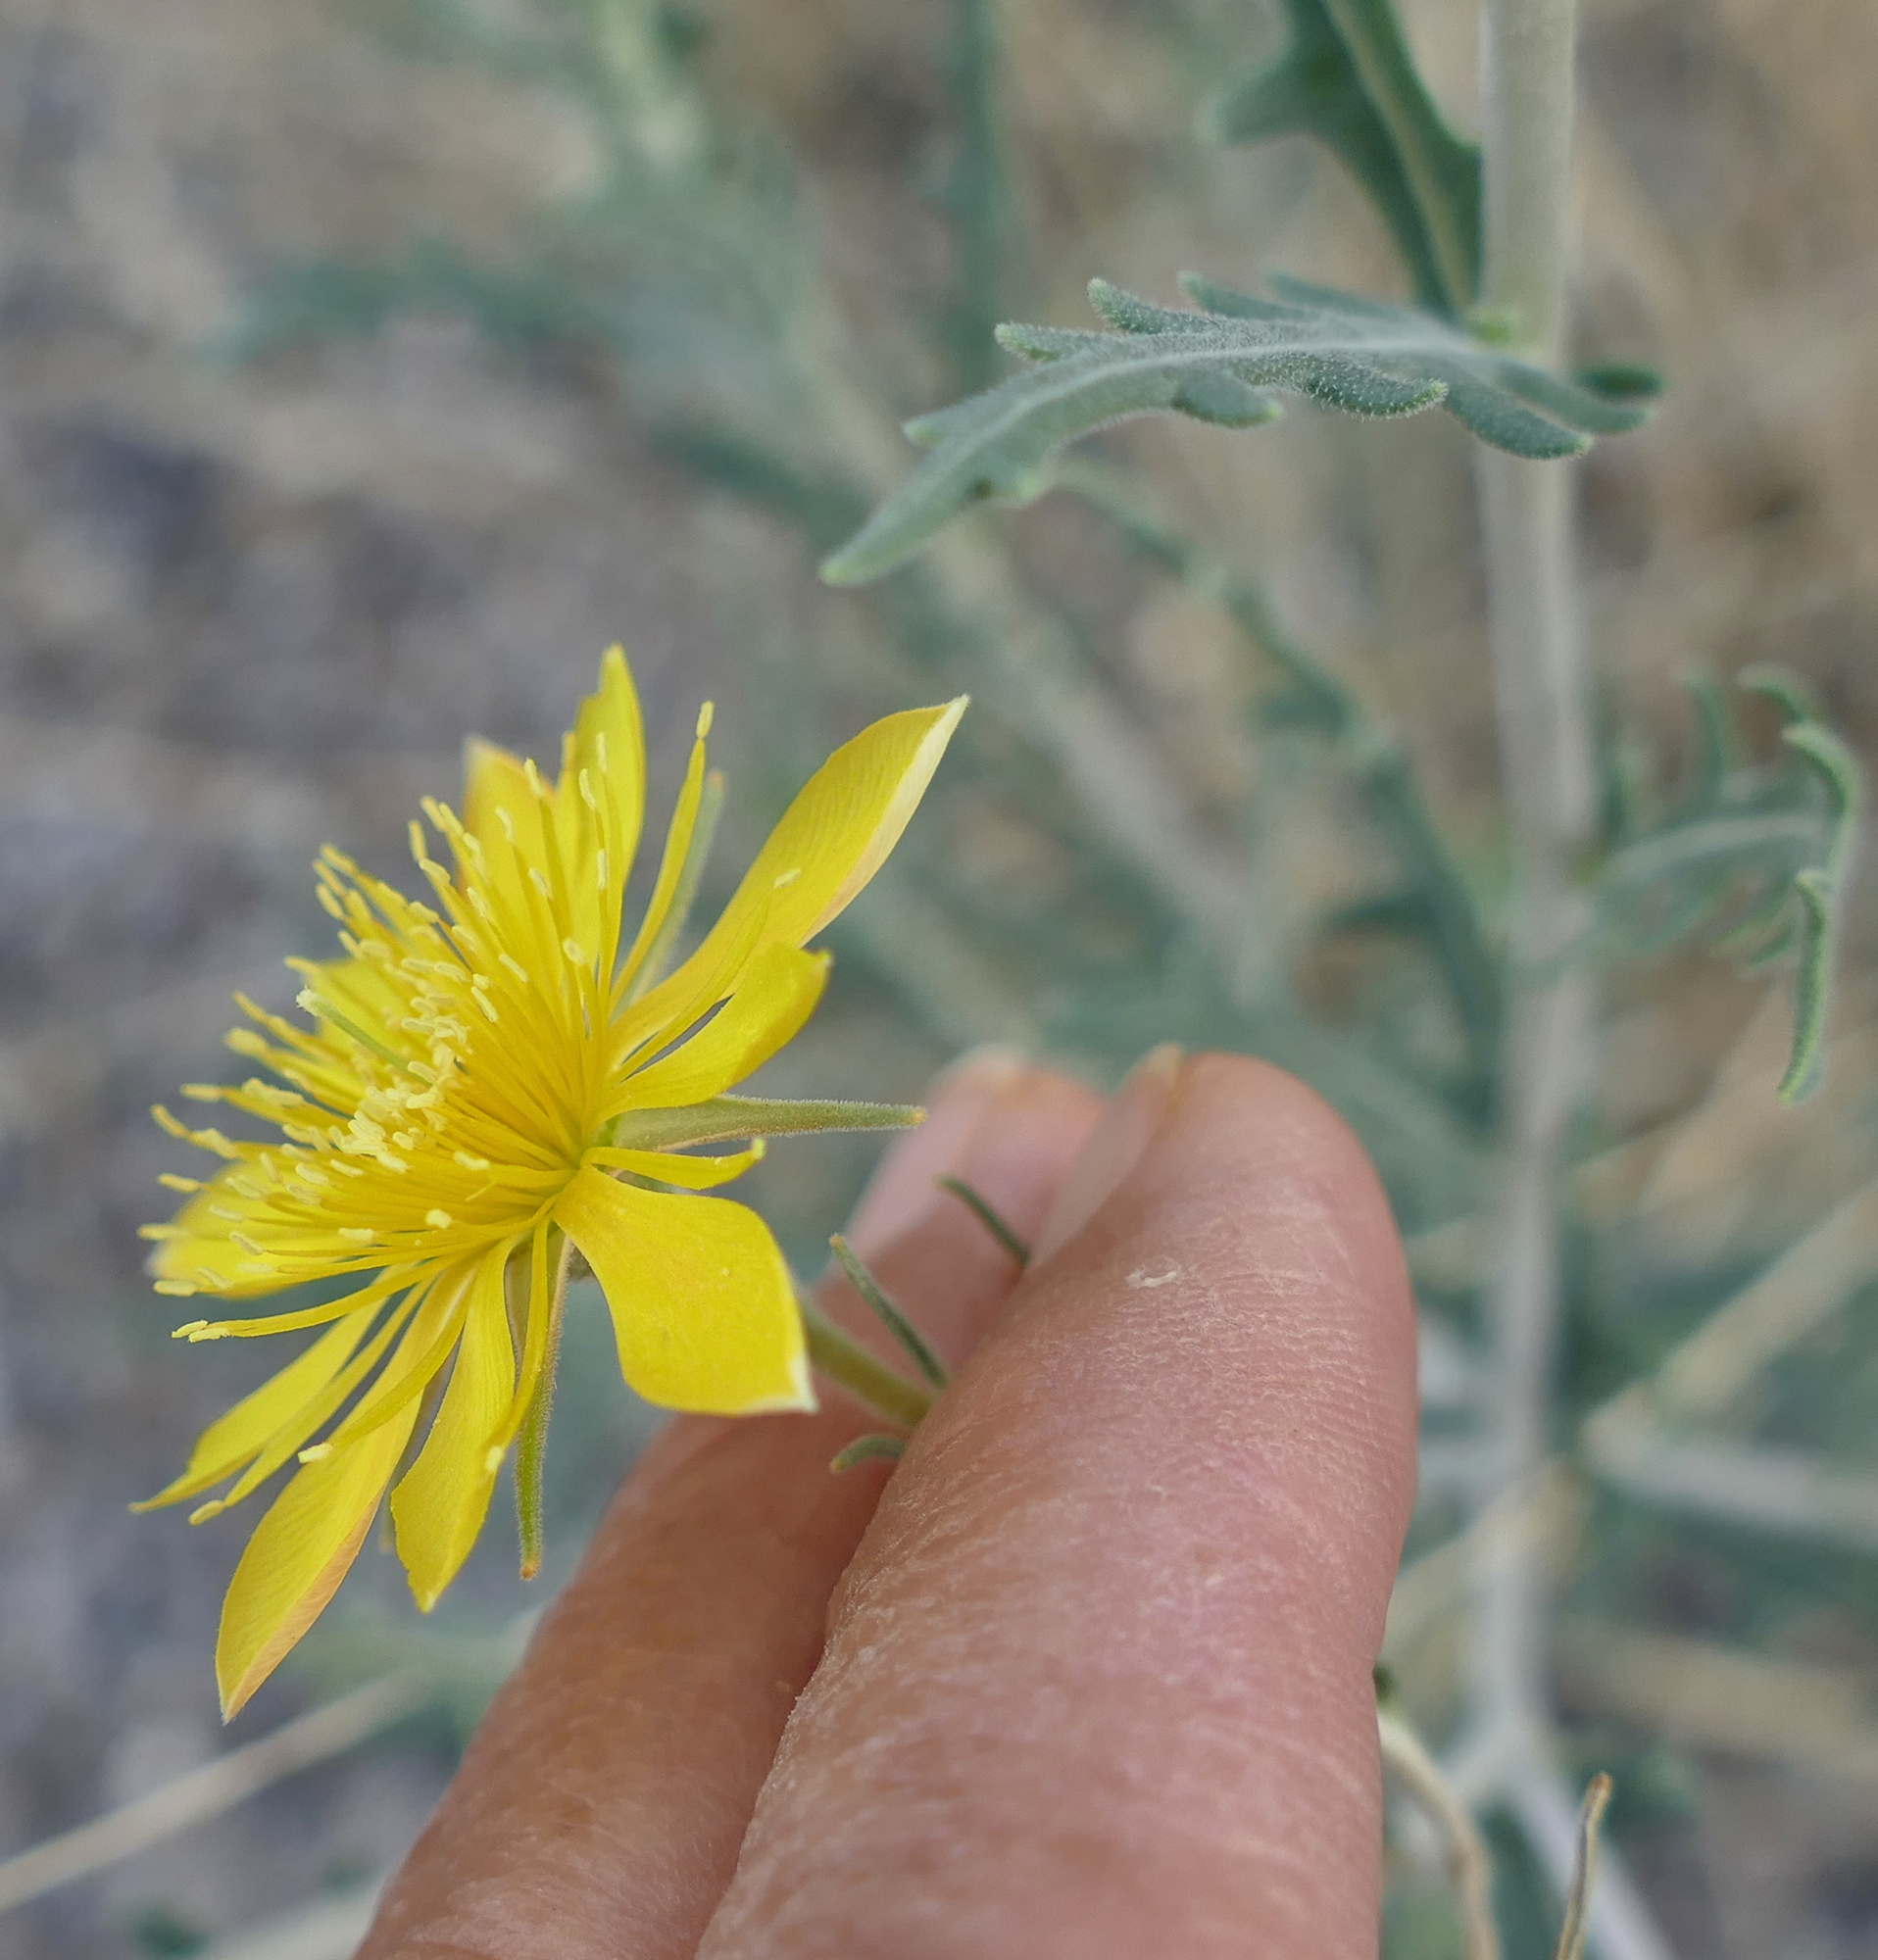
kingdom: Plantae
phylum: Tracheophyta
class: Magnoliopsida
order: Cornales
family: Loasaceae
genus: Mentzelia
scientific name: Mentzelia procera
